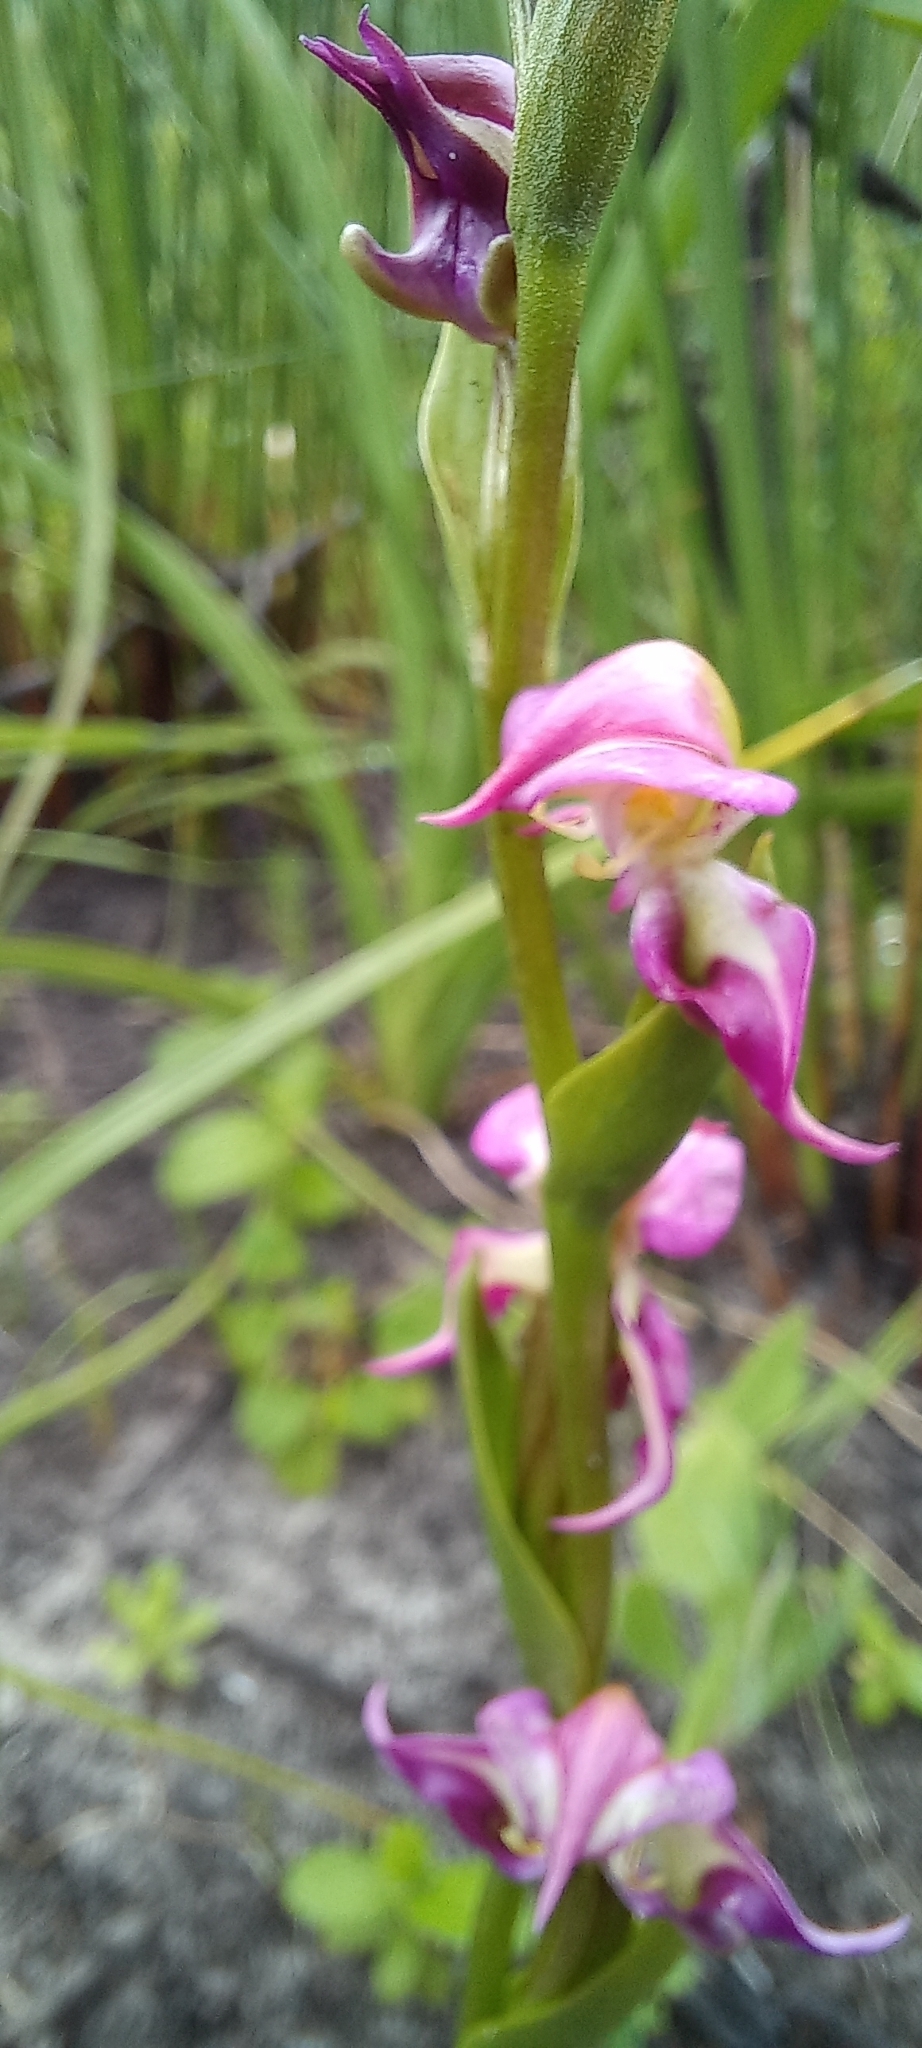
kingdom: Plantae
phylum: Tracheophyta
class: Liliopsida
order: Asparagales
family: Orchidaceae
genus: Disperis
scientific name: Disperis paludosa
